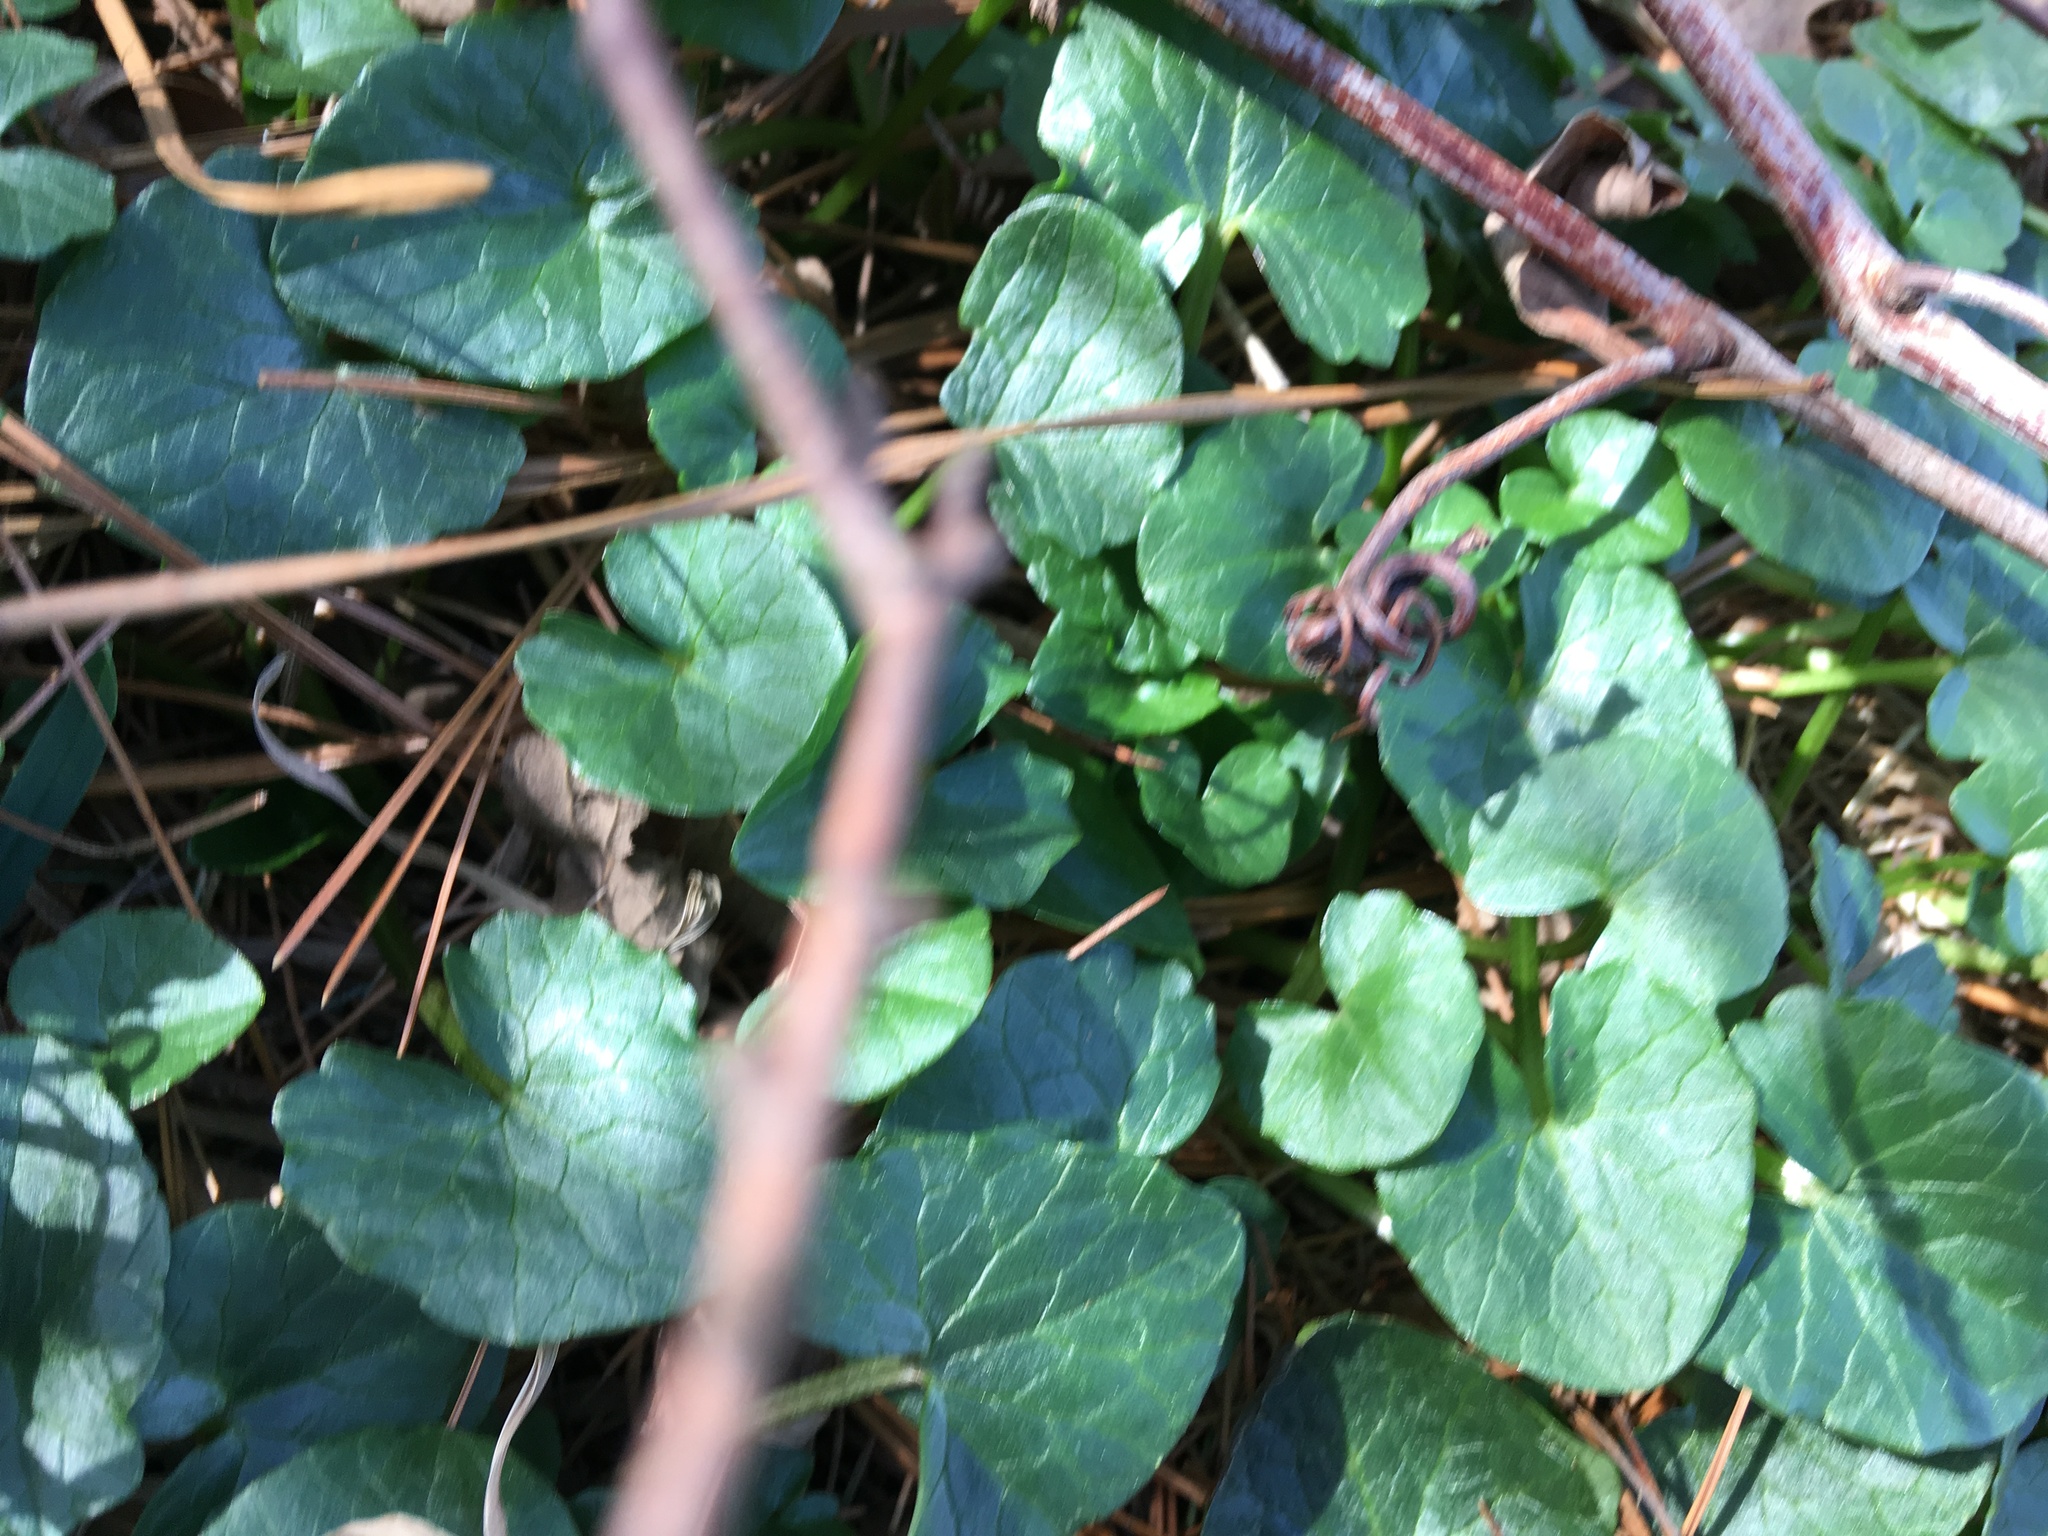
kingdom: Plantae
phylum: Tracheophyta
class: Magnoliopsida
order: Ranunculales
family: Ranunculaceae
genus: Ficaria
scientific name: Ficaria verna
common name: Lesser celandine
